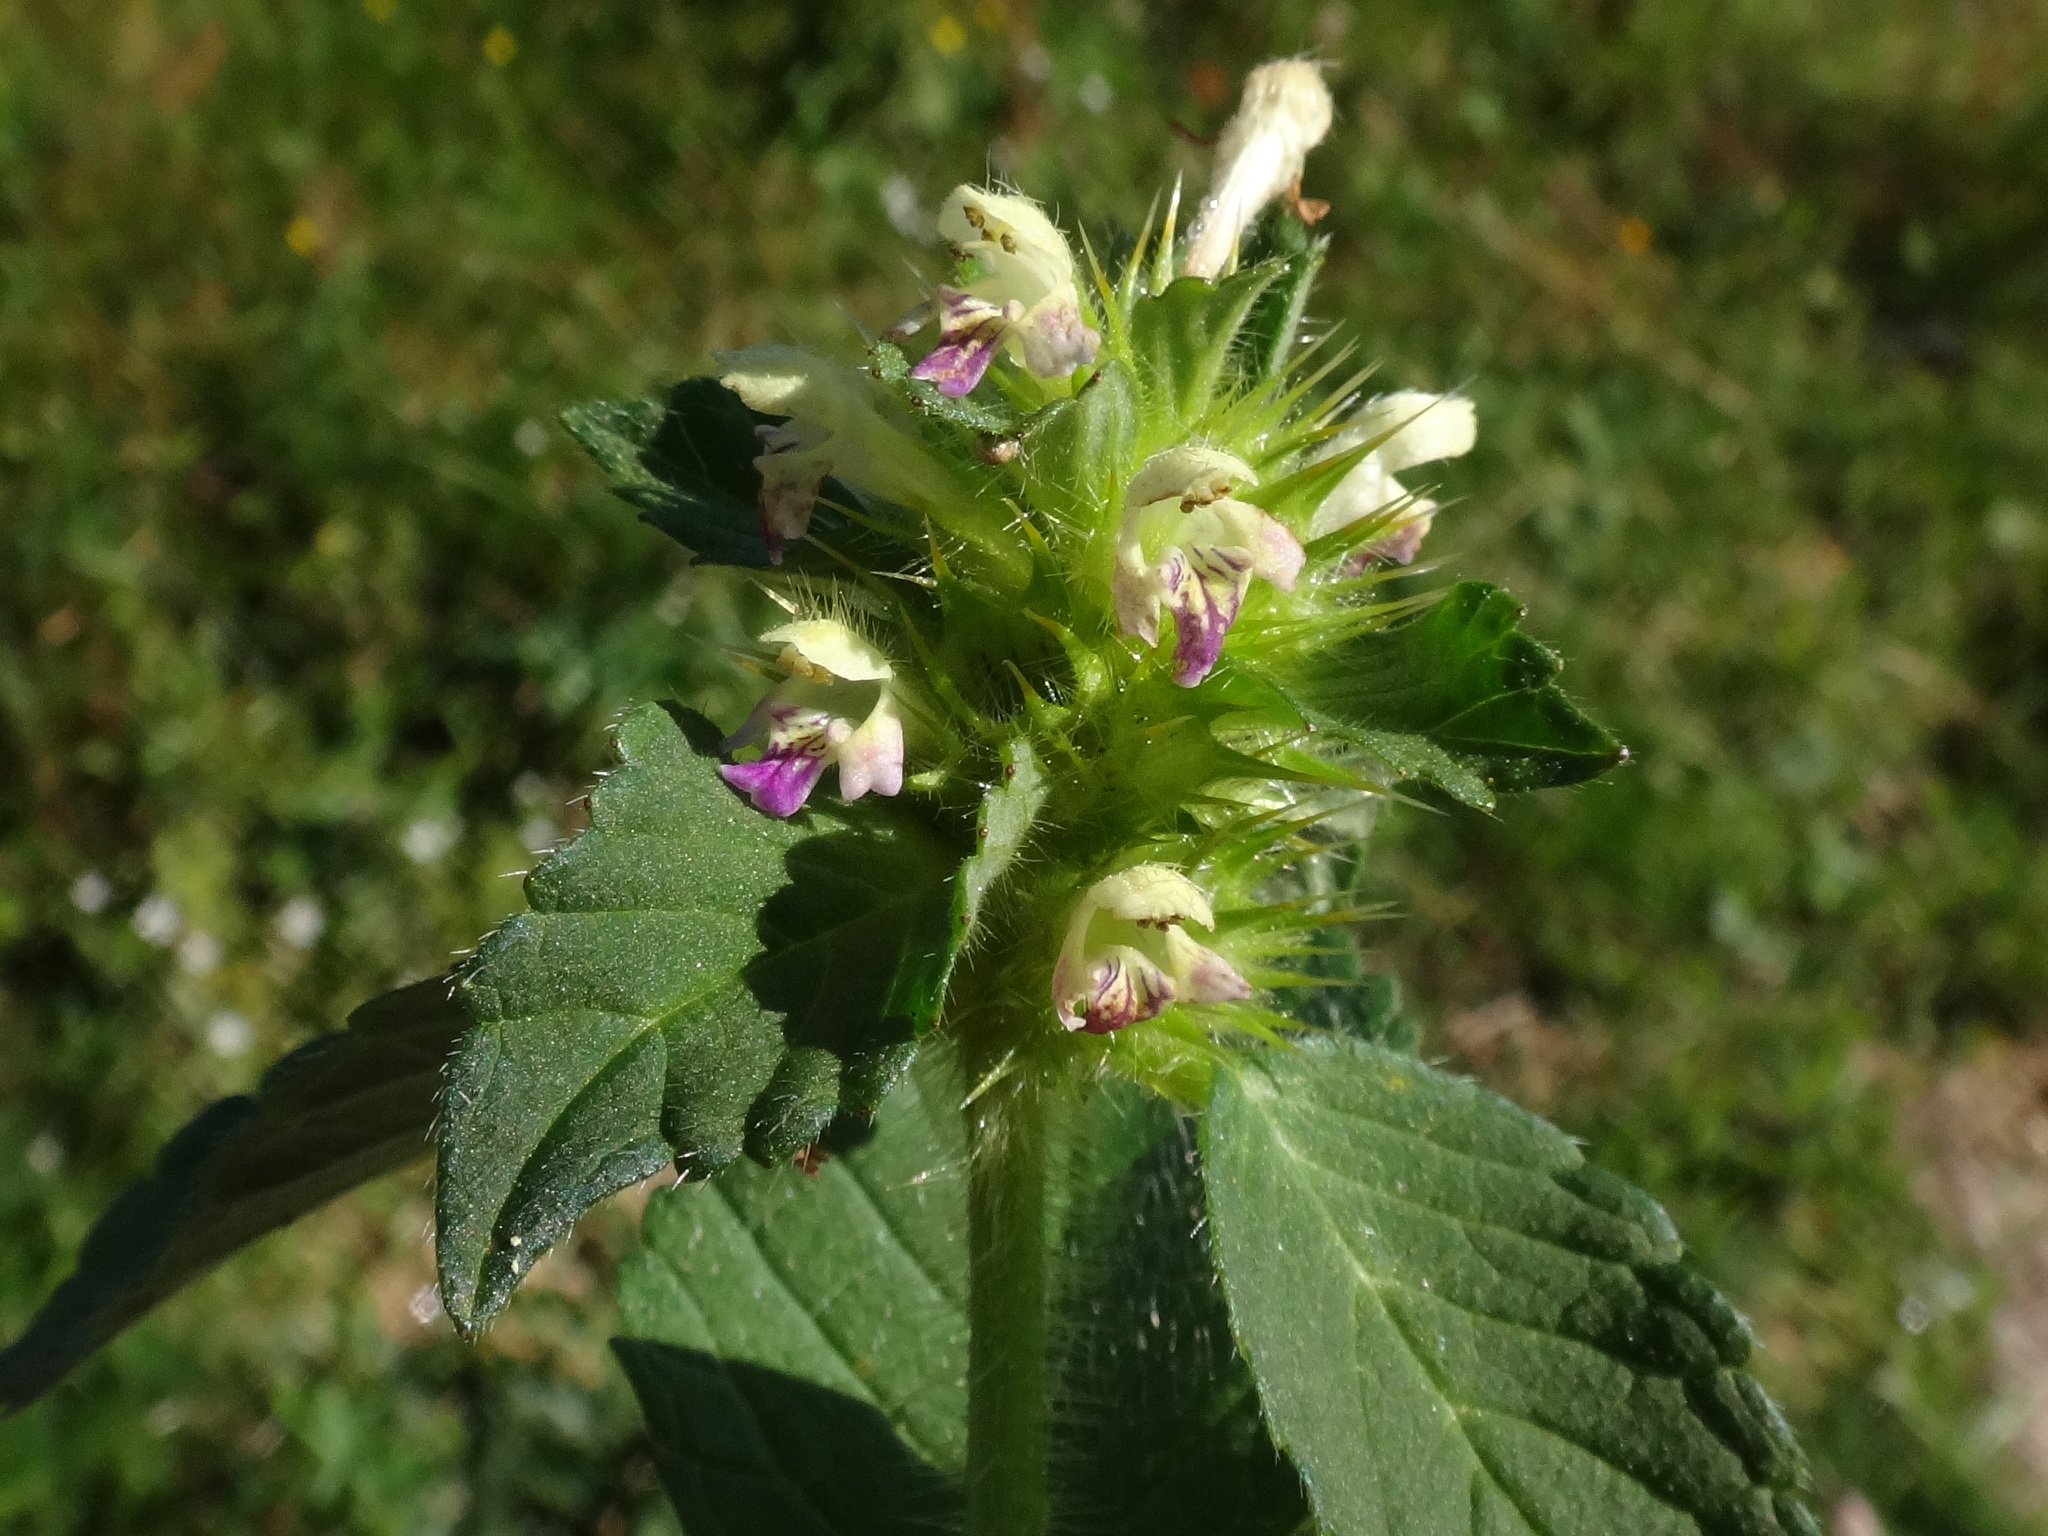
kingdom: Plantae
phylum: Tracheophyta
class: Magnoliopsida
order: Lamiales
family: Lamiaceae
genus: Galeopsis
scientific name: Galeopsis speciosa
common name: Large-flowered hemp-nettle
